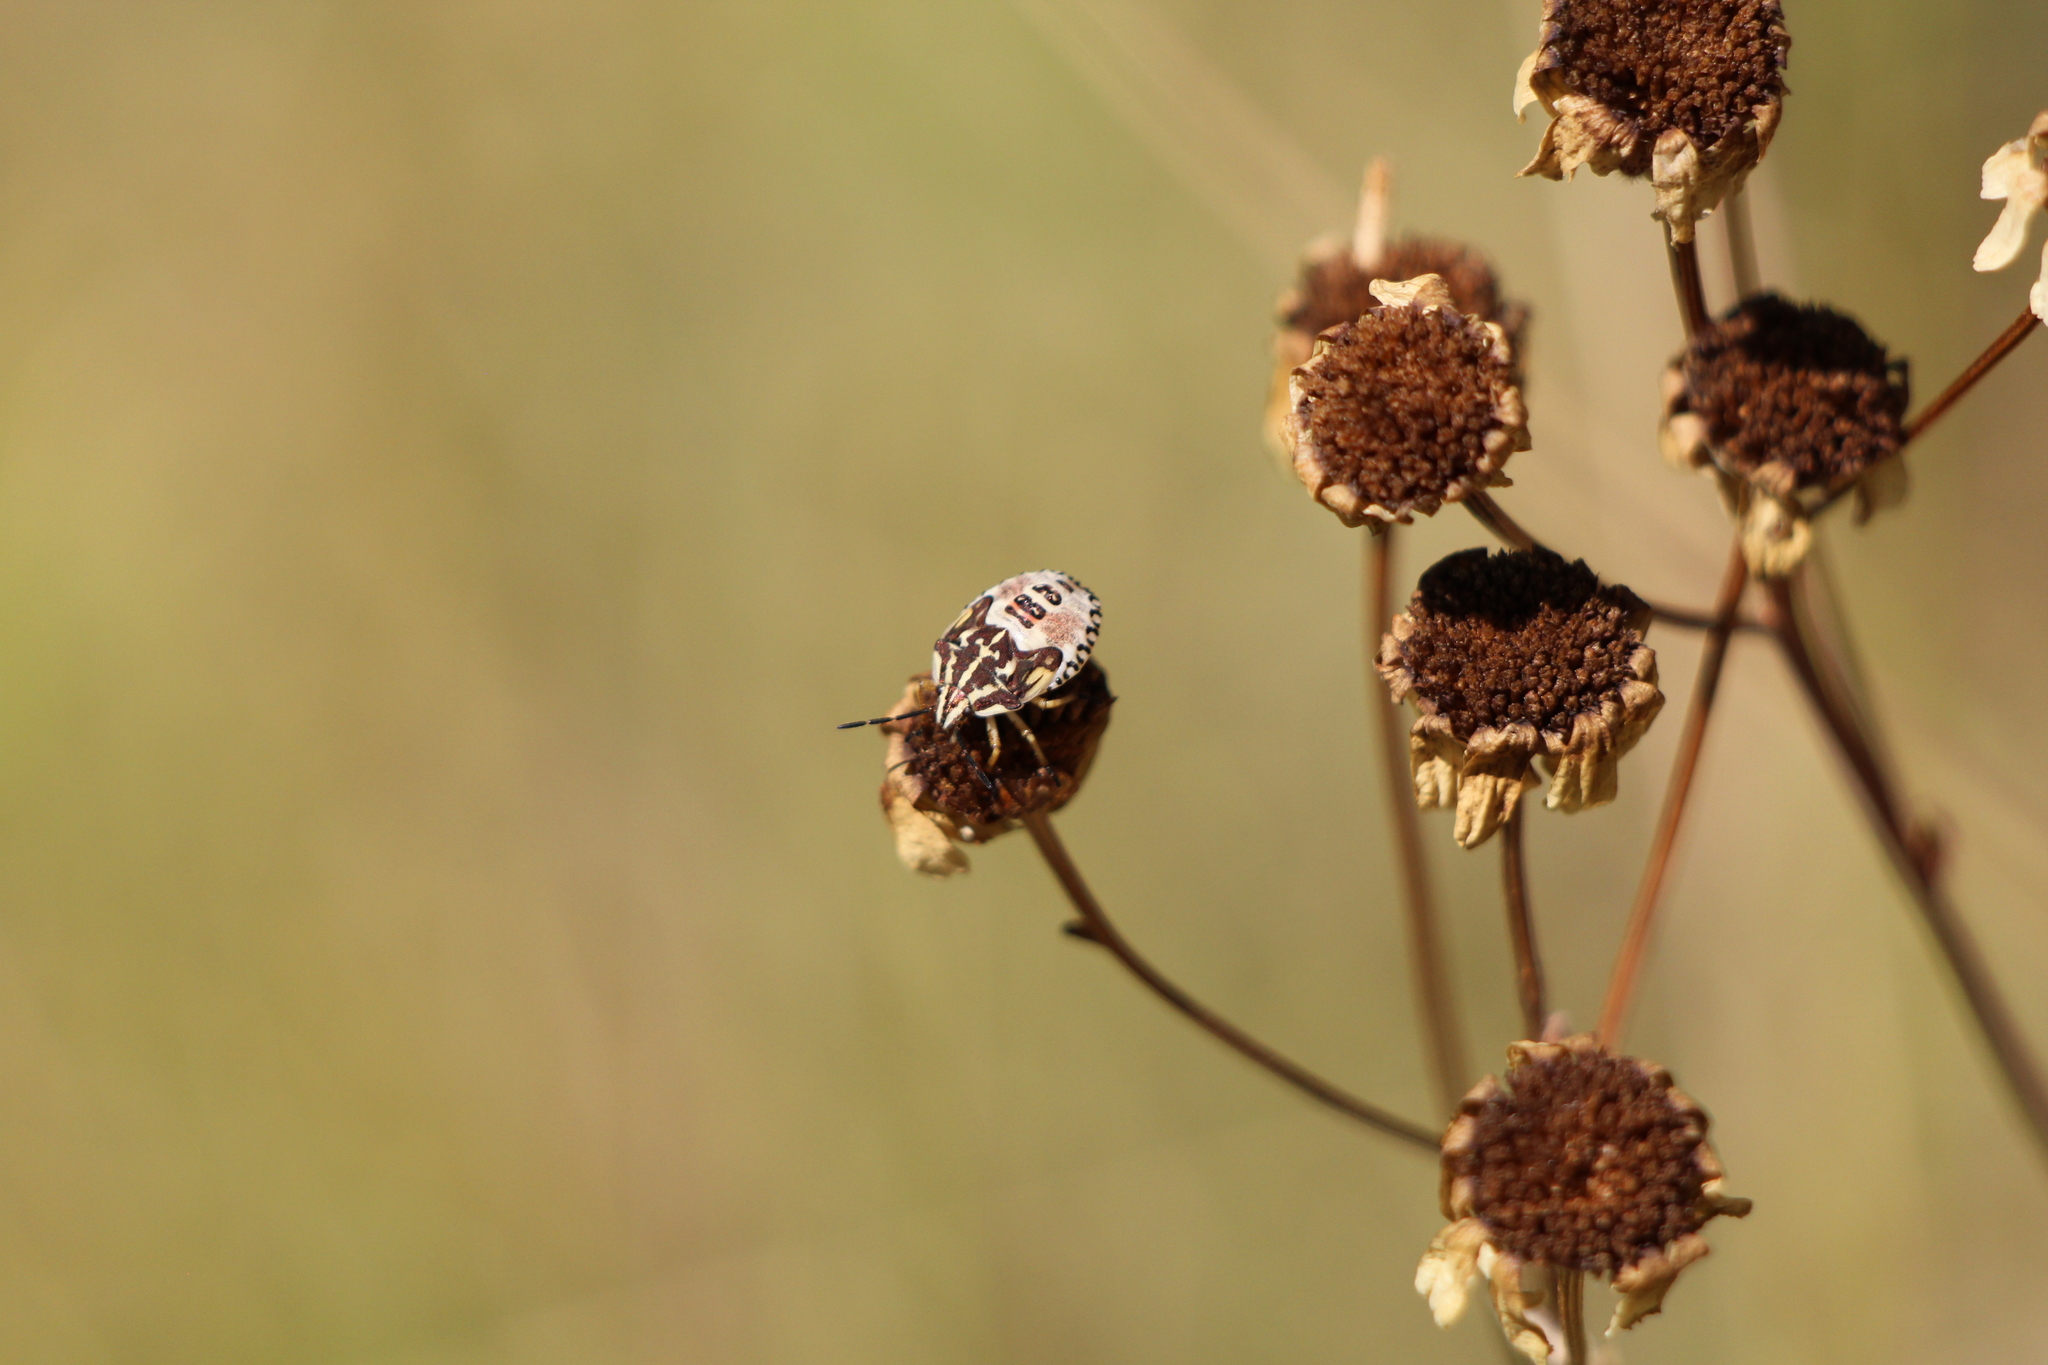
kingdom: Animalia
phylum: Arthropoda
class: Insecta
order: Hemiptera
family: Pentatomidae
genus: Carpocoris
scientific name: Carpocoris purpureipennis
